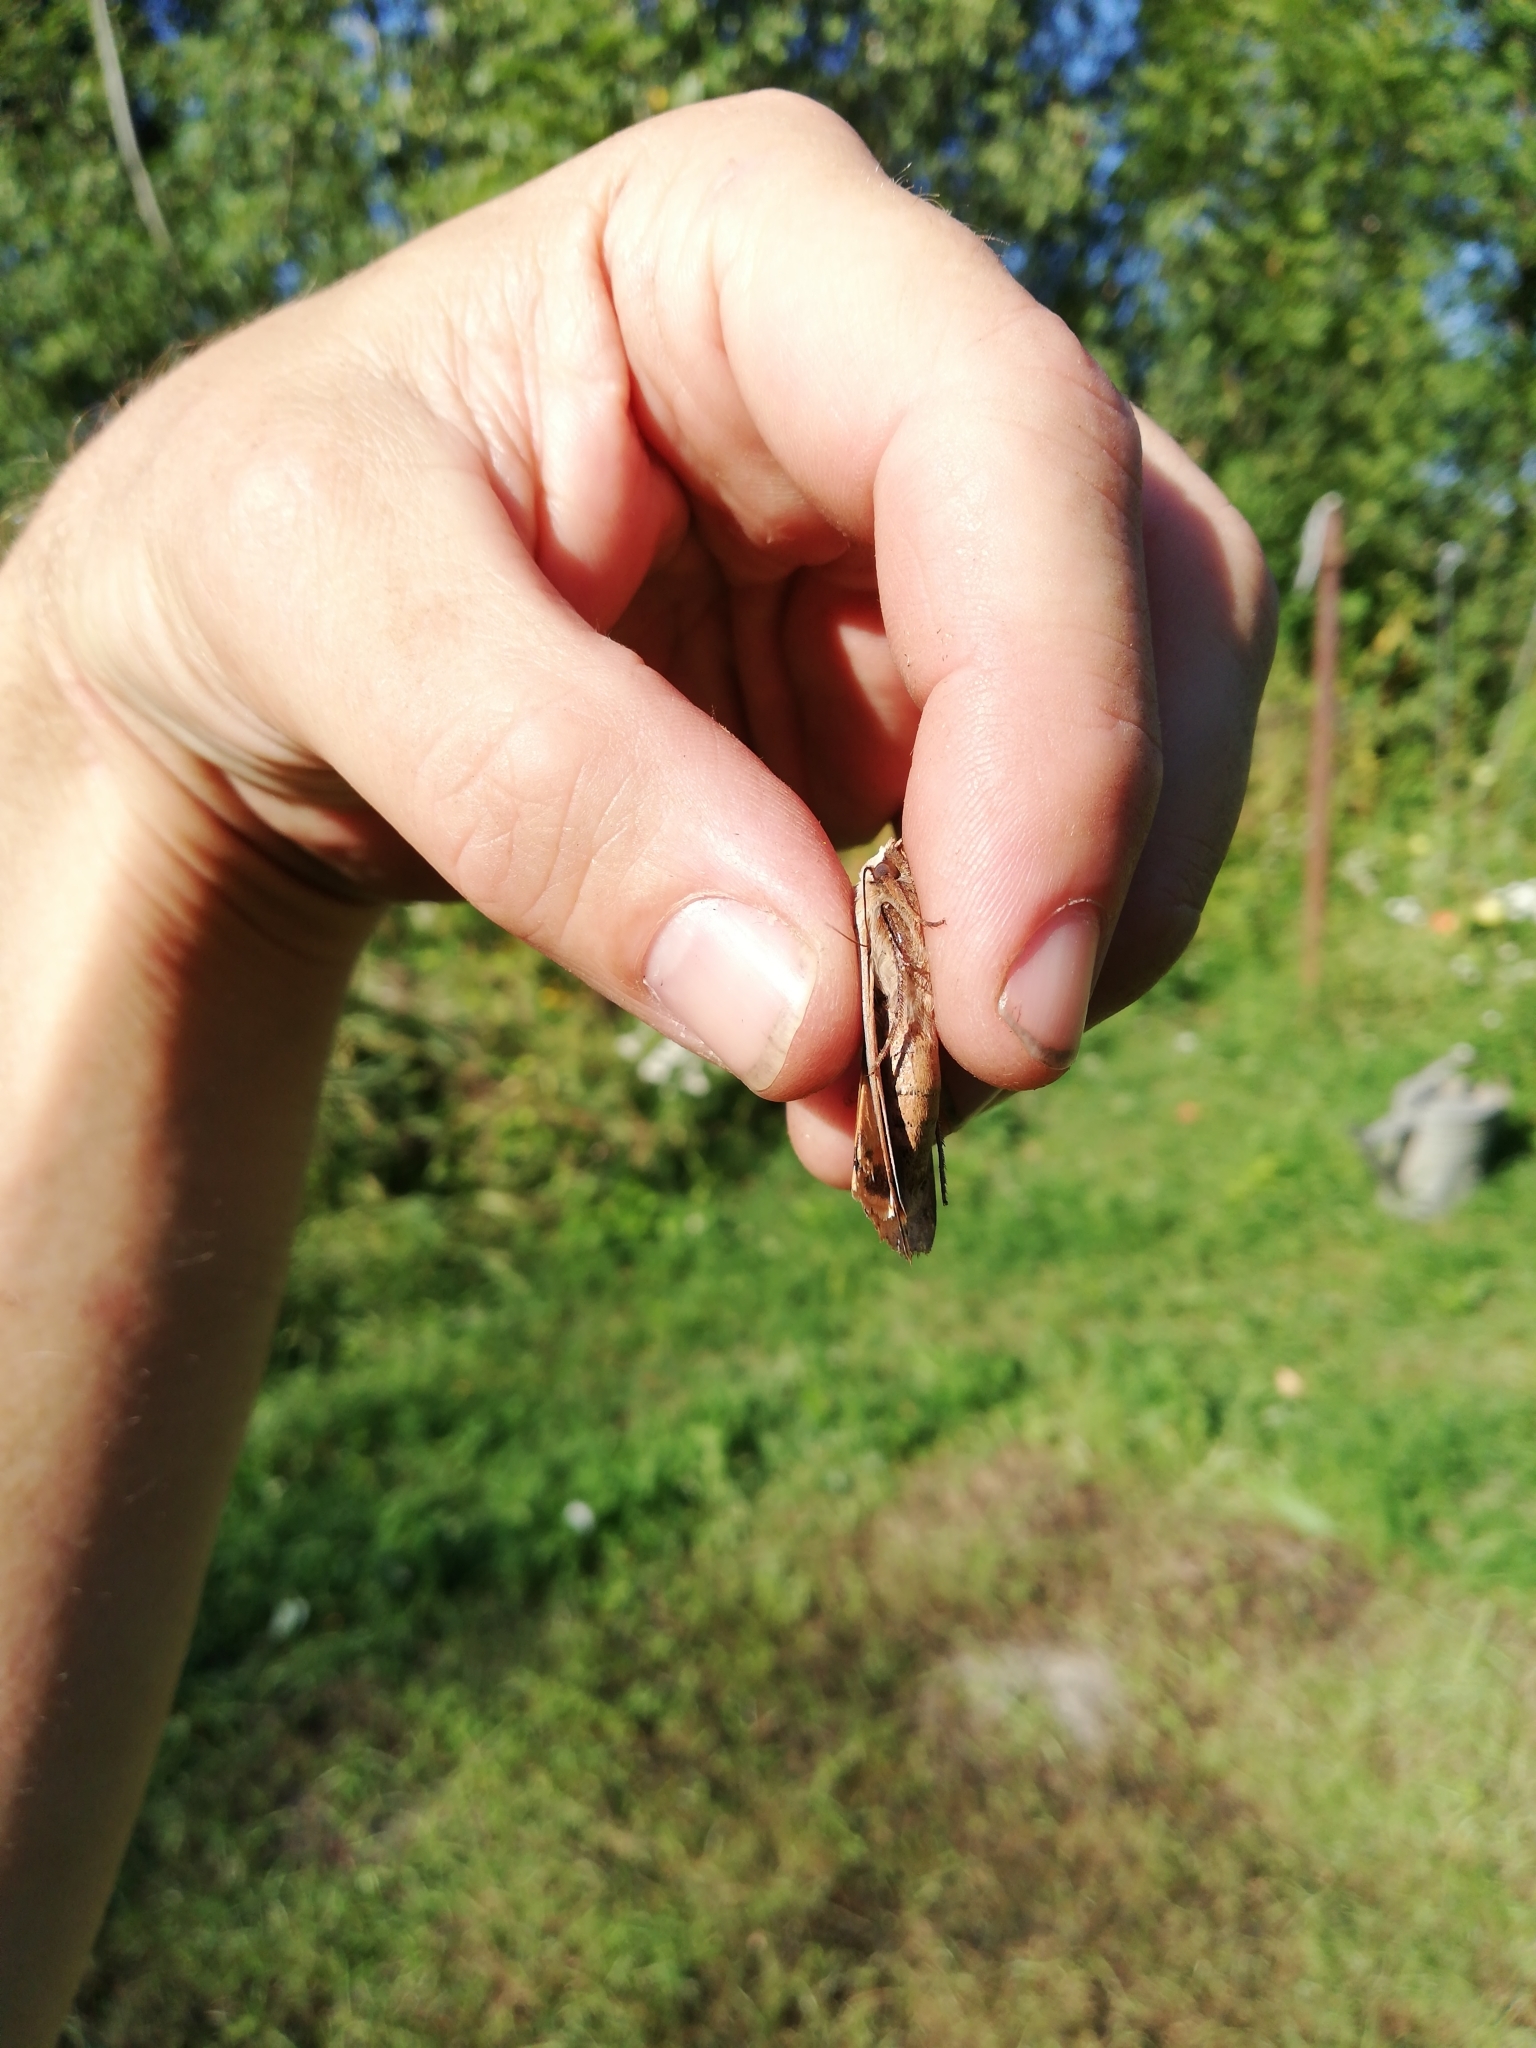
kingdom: Animalia
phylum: Arthropoda
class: Insecta
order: Lepidoptera
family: Noctuidae
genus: Noctua
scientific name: Noctua pronuba
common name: Large yellow underwing
